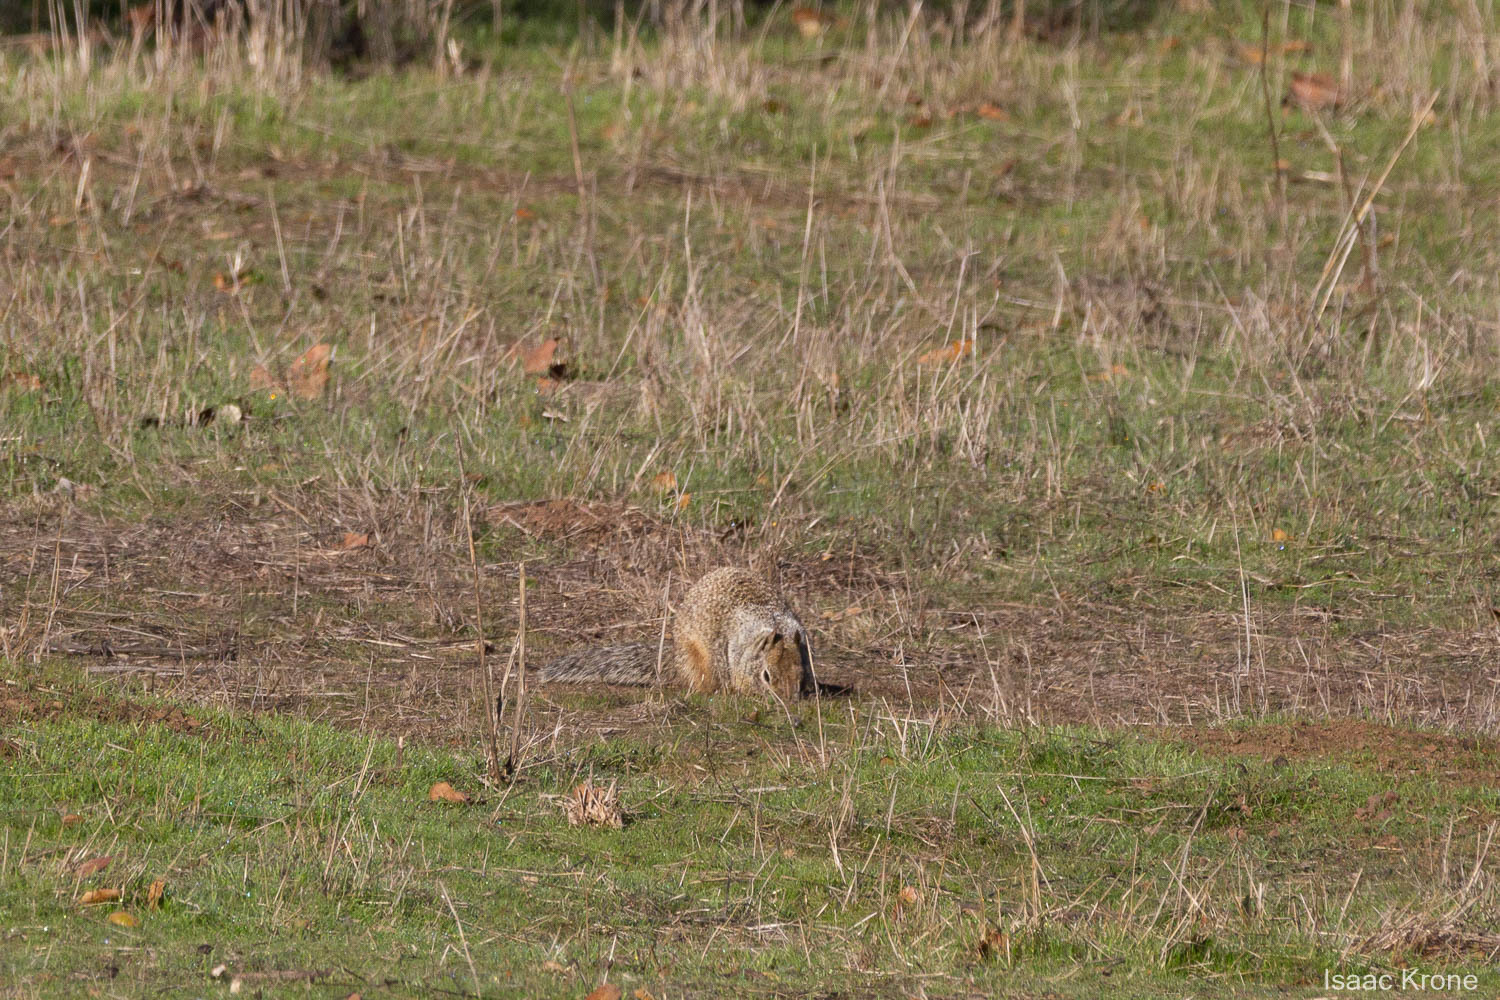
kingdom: Animalia
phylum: Chordata
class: Mammalia
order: Rodentia
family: Sciuridae
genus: Otospermophilus
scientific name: Otospermophilus beecheyi
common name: California ground squirrel
